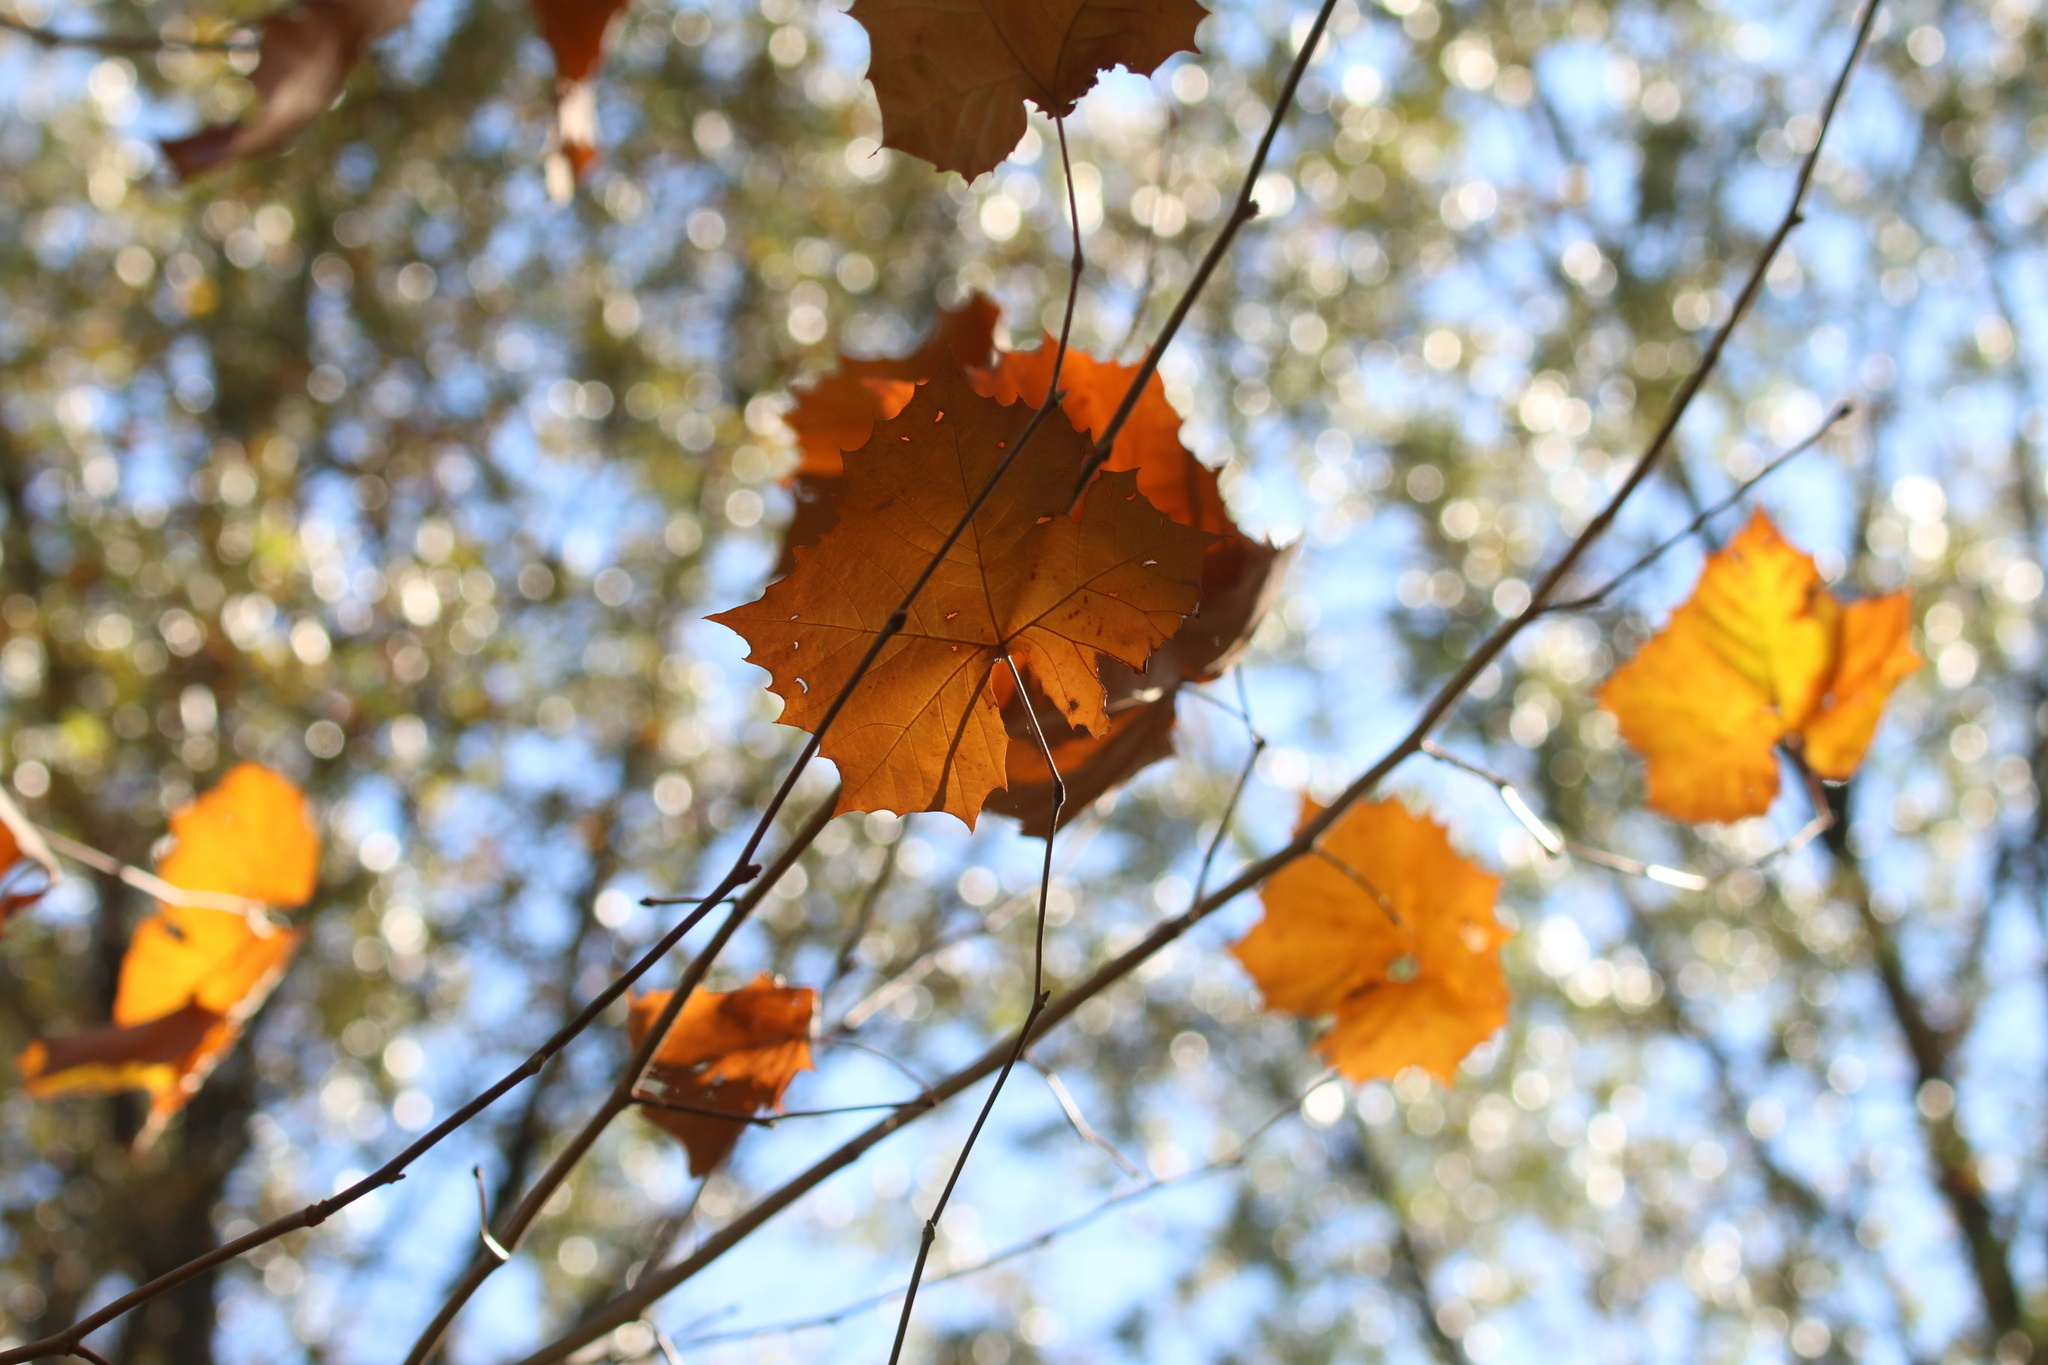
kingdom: Plantae
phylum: Tracheophyta
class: Magnoliopsida
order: Proteales
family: Platanaceae
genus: Platanus
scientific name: Platanus occidentalis
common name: American sycamore
